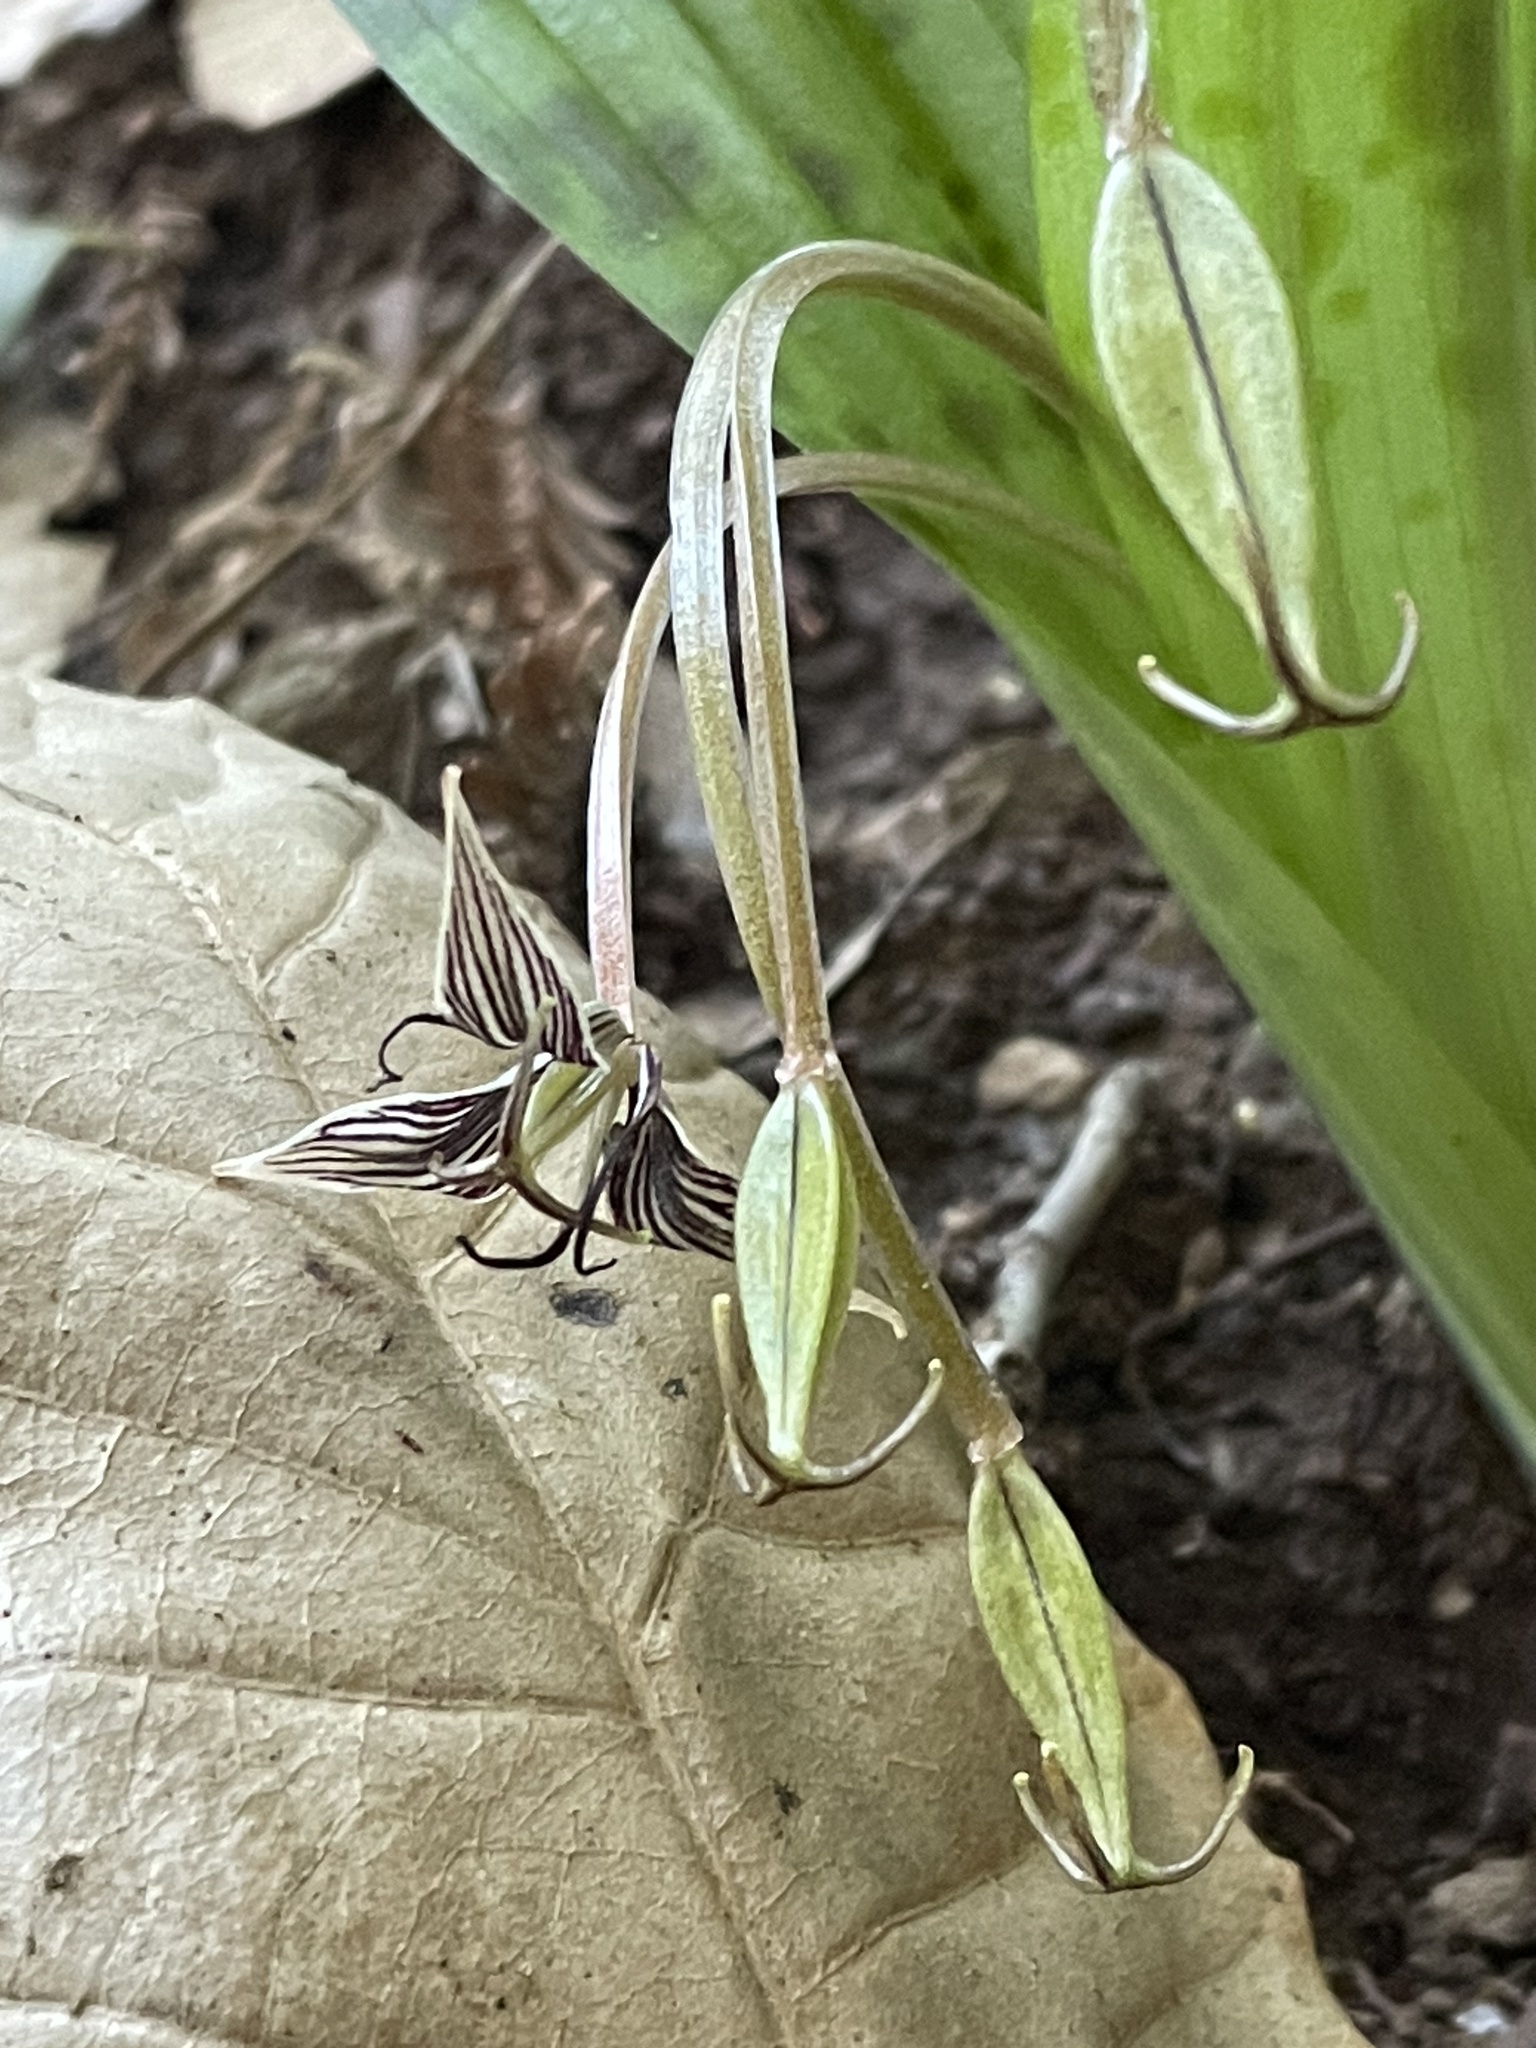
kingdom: Plantae
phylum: Tracheophyta
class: Liliopsida
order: Liliales
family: Liliaceae
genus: Scoliopus
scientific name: Scoliopus bigelovii
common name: Foetid adder's-tongue
